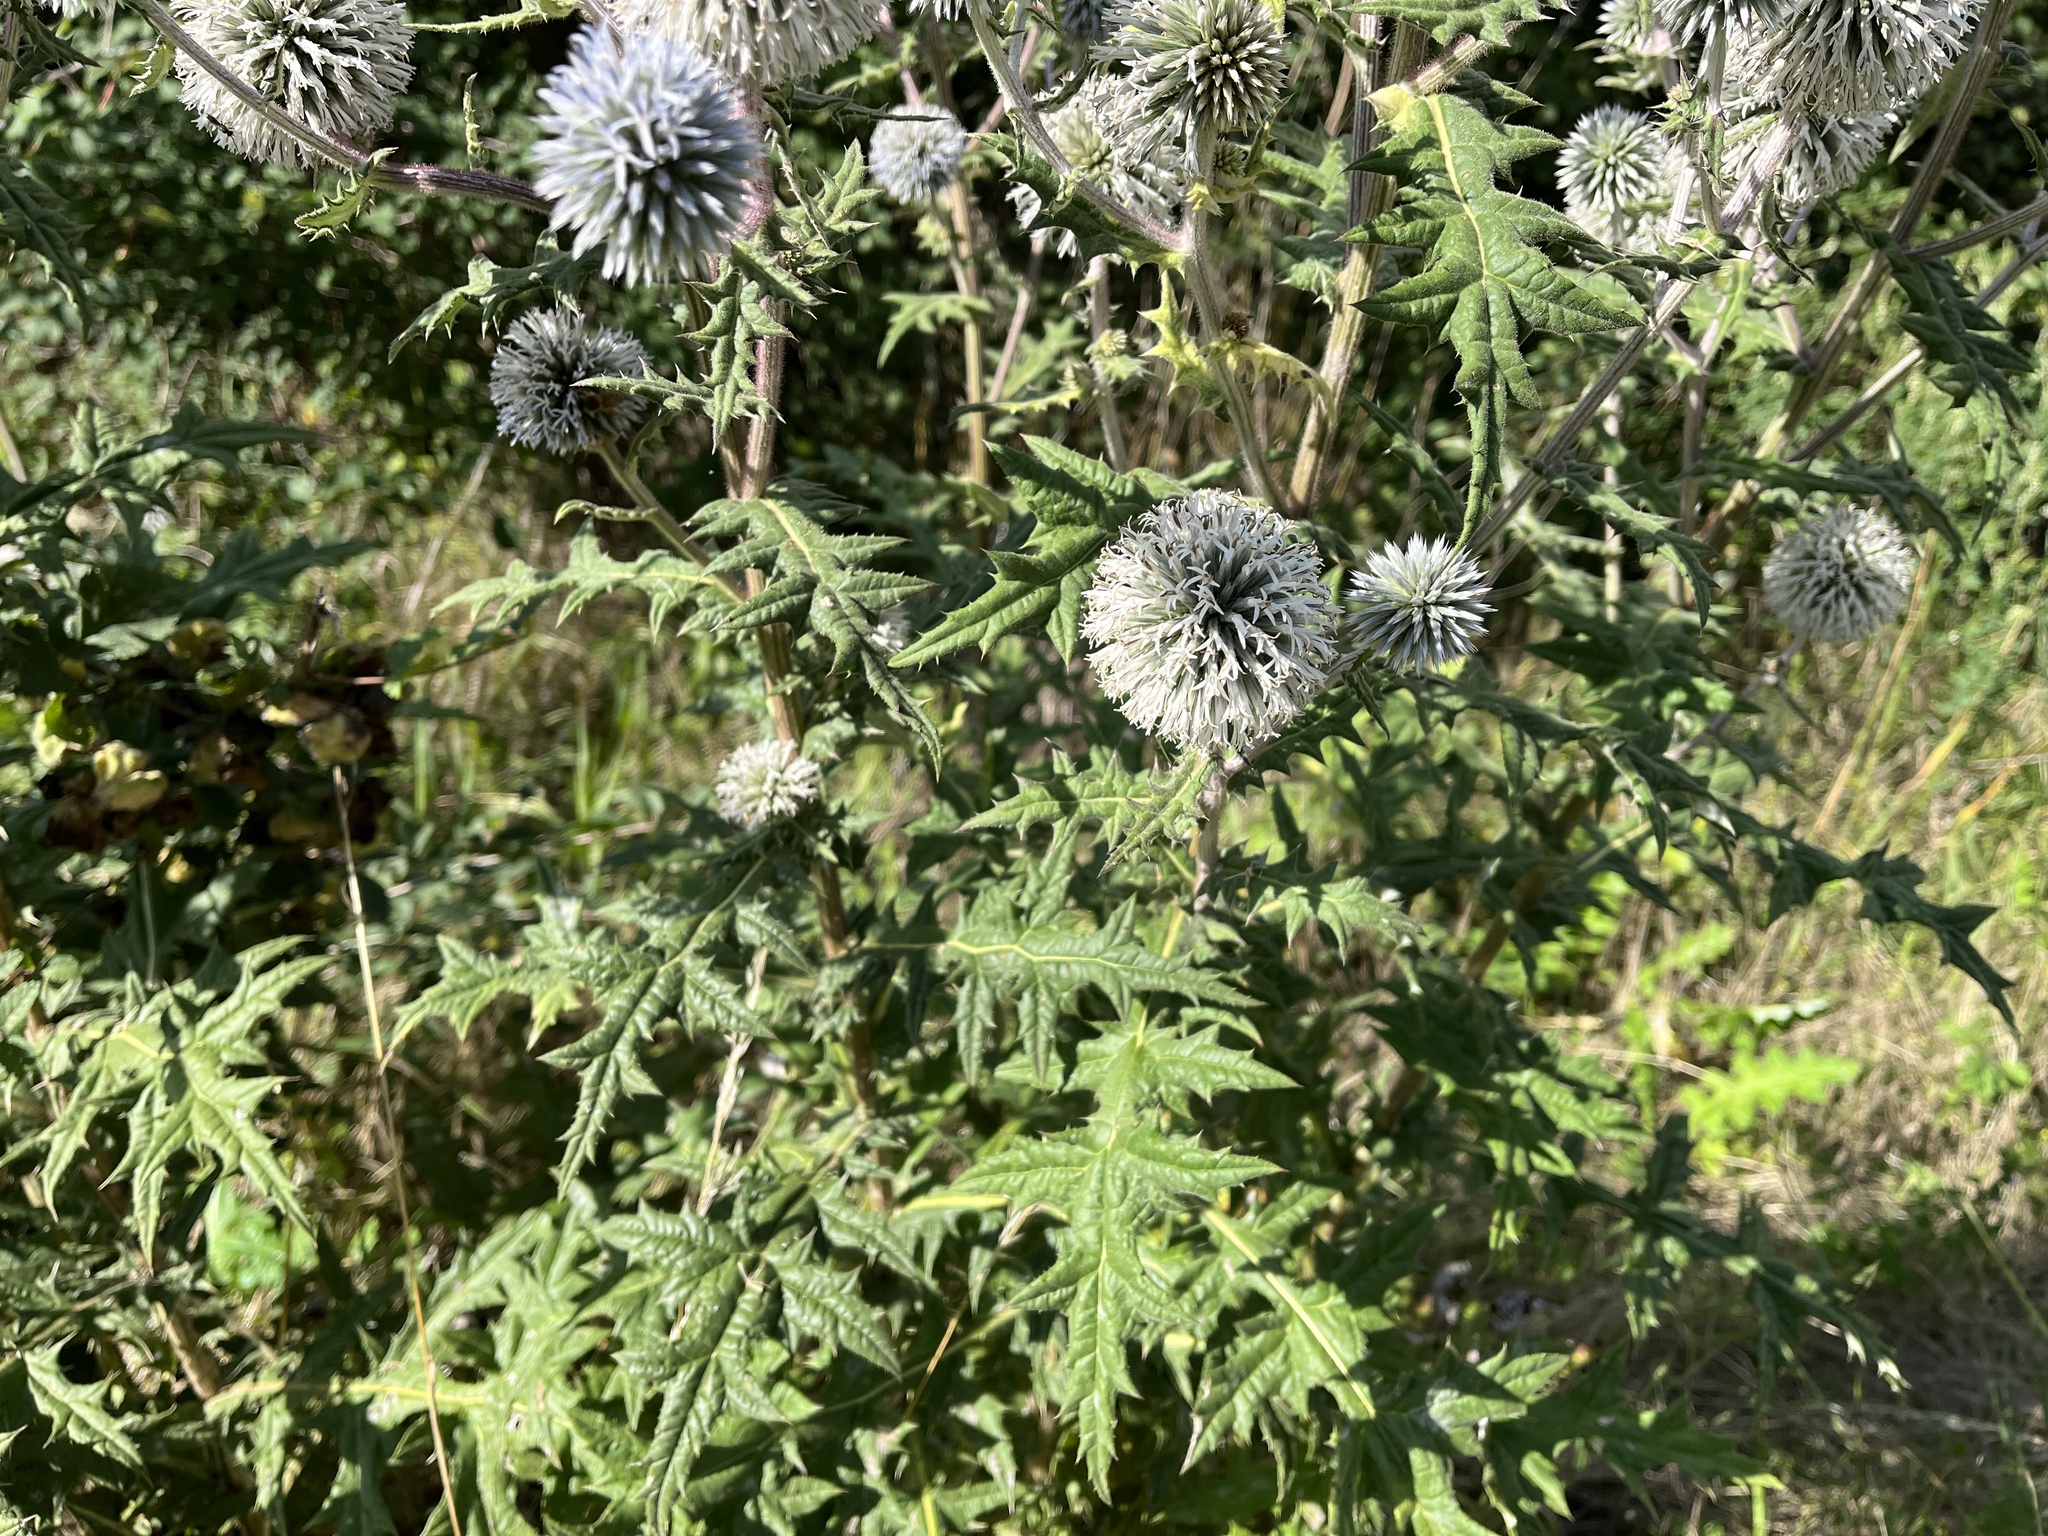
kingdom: Plantae
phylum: Tracheophyta
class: Magnoliopsida
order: Asterales
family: Asteraceae
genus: Echinops
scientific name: Echinops sphaerocephalus
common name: Glandular globe-thistle
